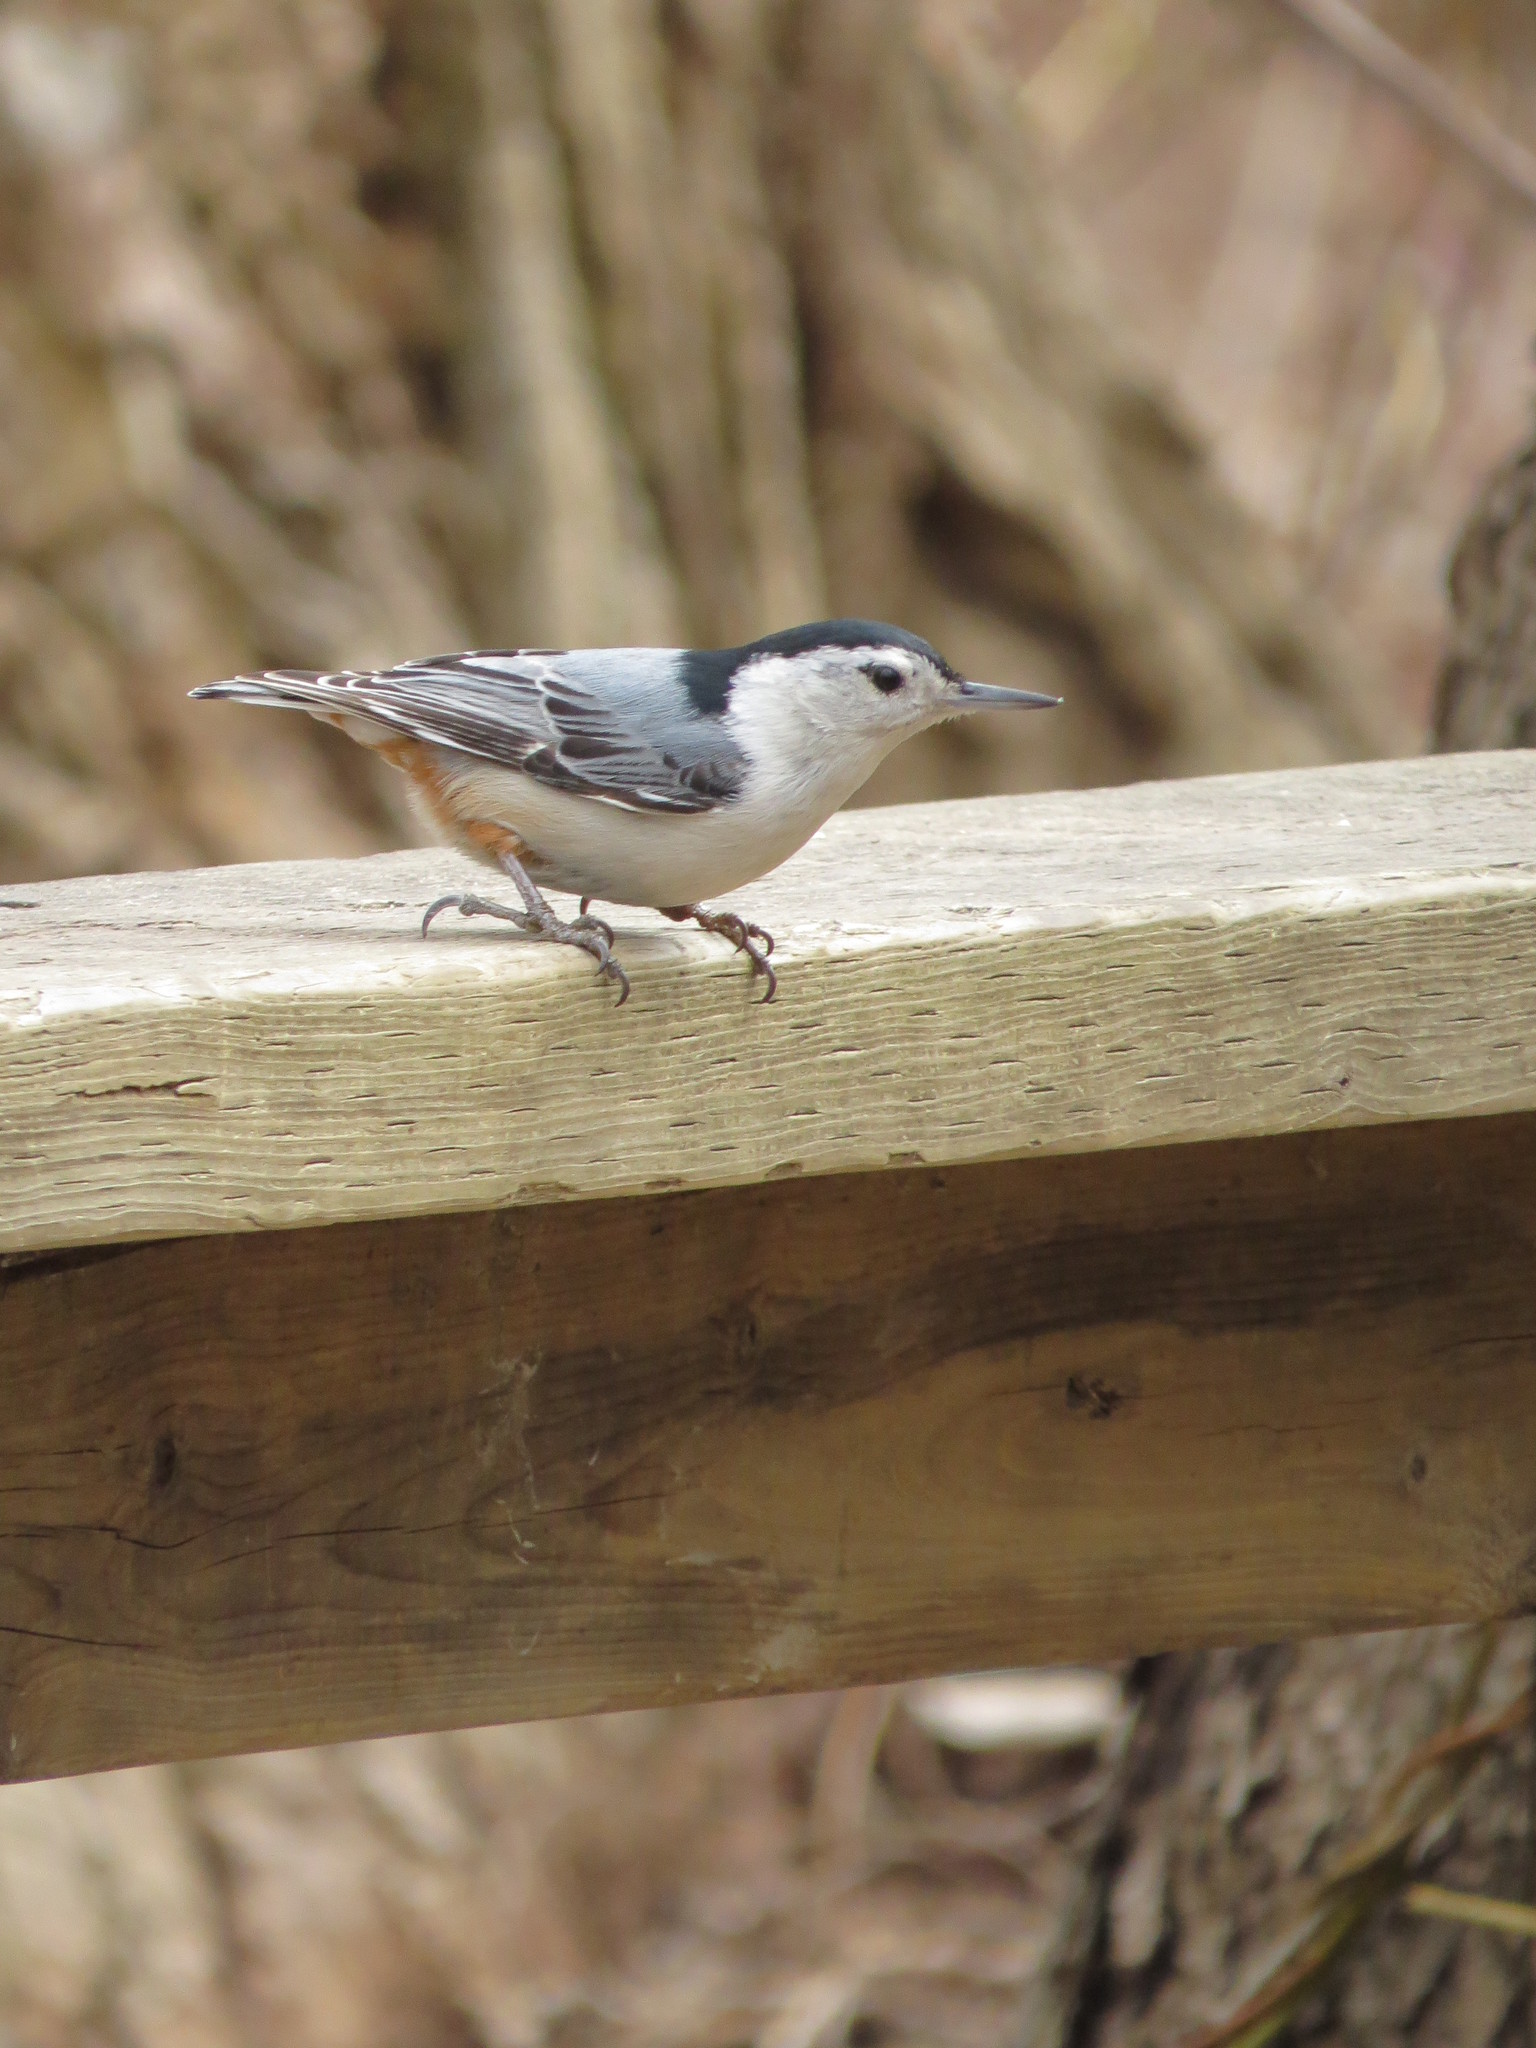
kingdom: Animalia
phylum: Chordata
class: Aves
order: Passeriformes
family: Sittidae
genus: Sitta
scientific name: Sitta carolinensis
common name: White-breasted nuthatch
